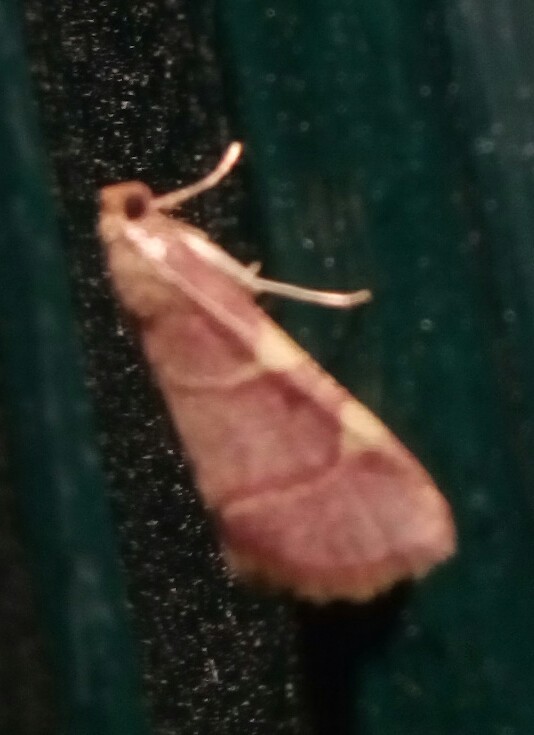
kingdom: Animalia
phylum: Arthropoda
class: Insecta
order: Lepidoptera
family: Pyralidae
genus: Hypsopygia
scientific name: Hypsopygia olinalis
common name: Yellow-fringed dolichomia moth
